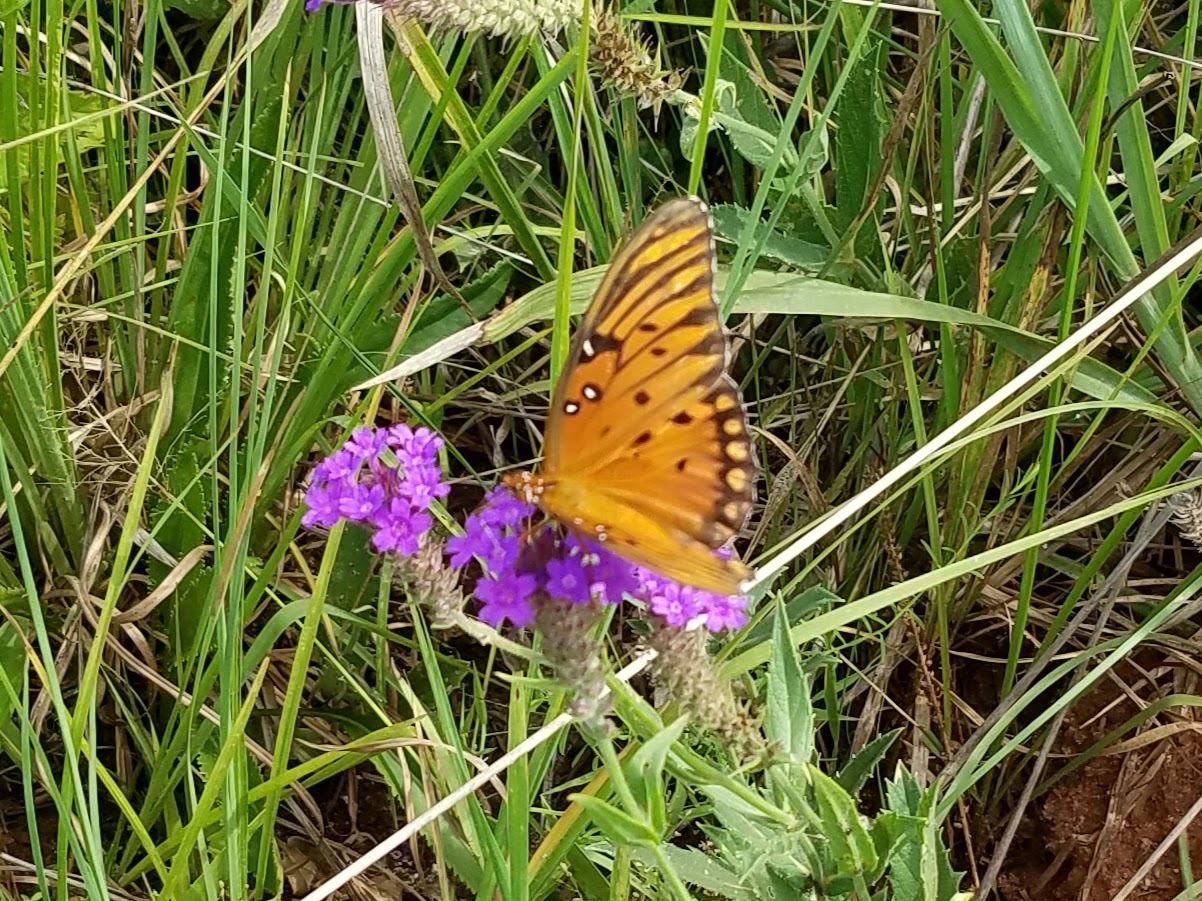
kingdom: Animalia
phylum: Arthropoda
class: Insecta
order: Lepidoptera
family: Nymphalidae
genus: Dione
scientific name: Dione vanillae
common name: Gulf fritillary
